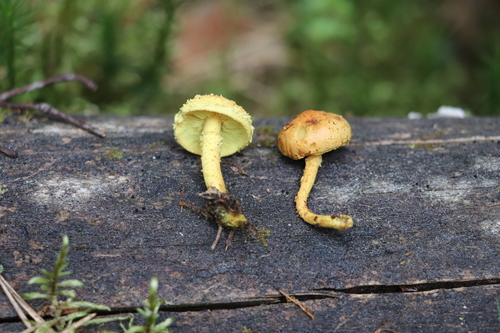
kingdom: Fungi
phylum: Basidiomycota
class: Agaricomycetes
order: Agaricales
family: Strophariaceae
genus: Pholiota
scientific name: Pholiota flammans
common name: Flaming scalycap
